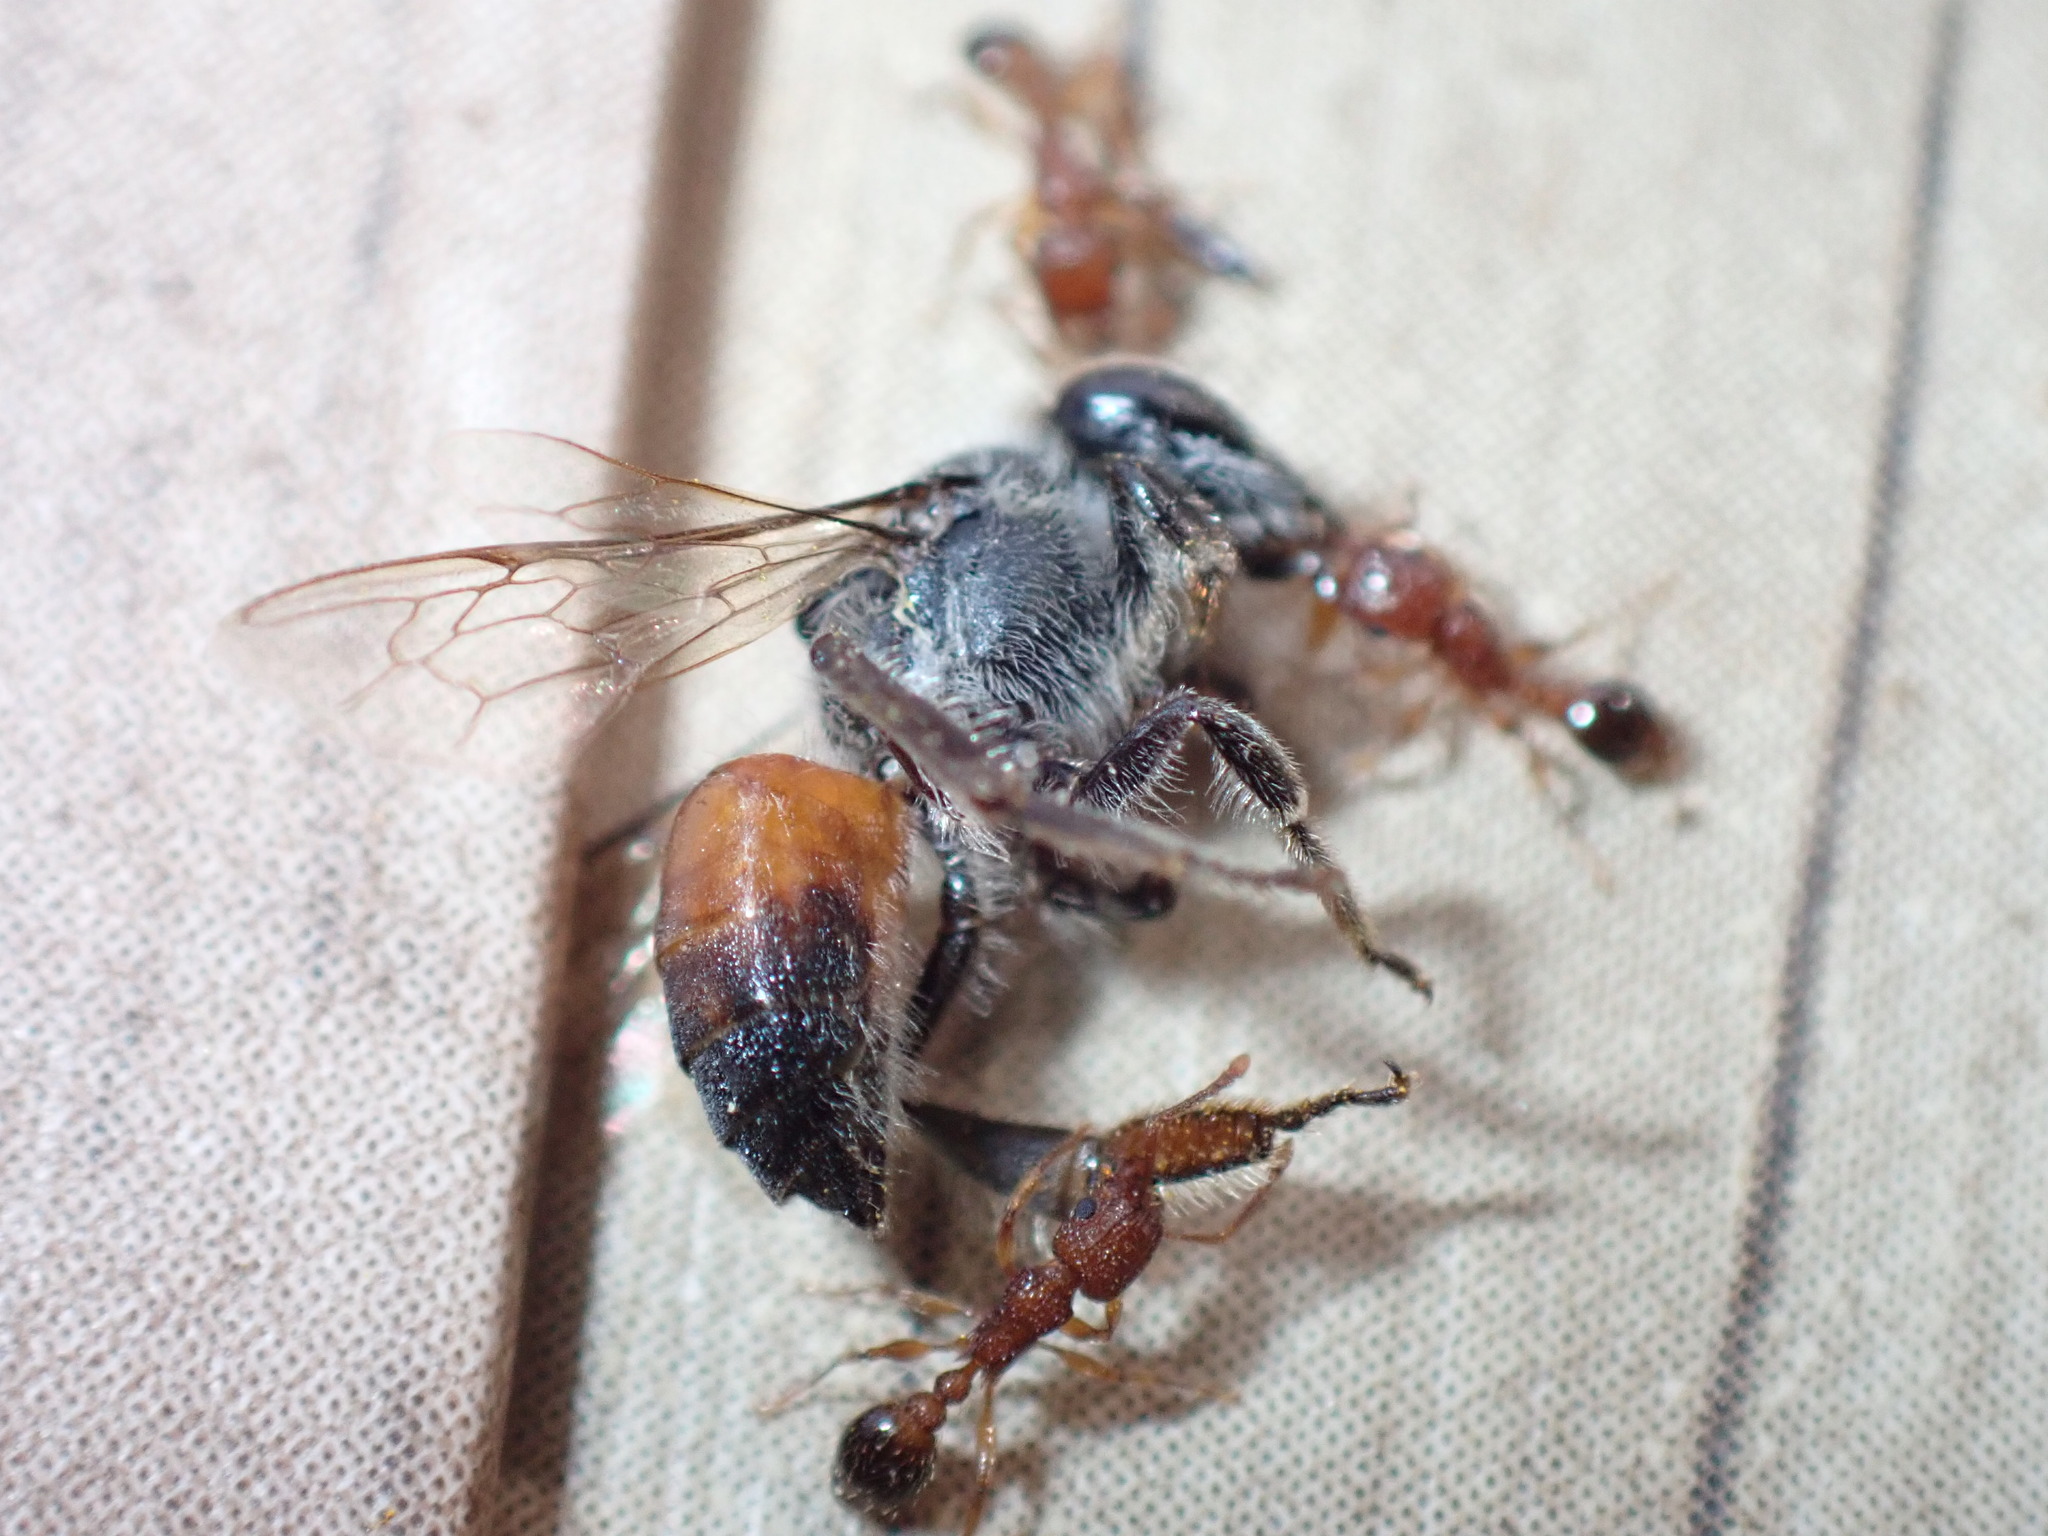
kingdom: Animalia
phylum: Arthropoda
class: Insecta
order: Hymenoptera
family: Apidae
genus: Apis
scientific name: Apis florea
